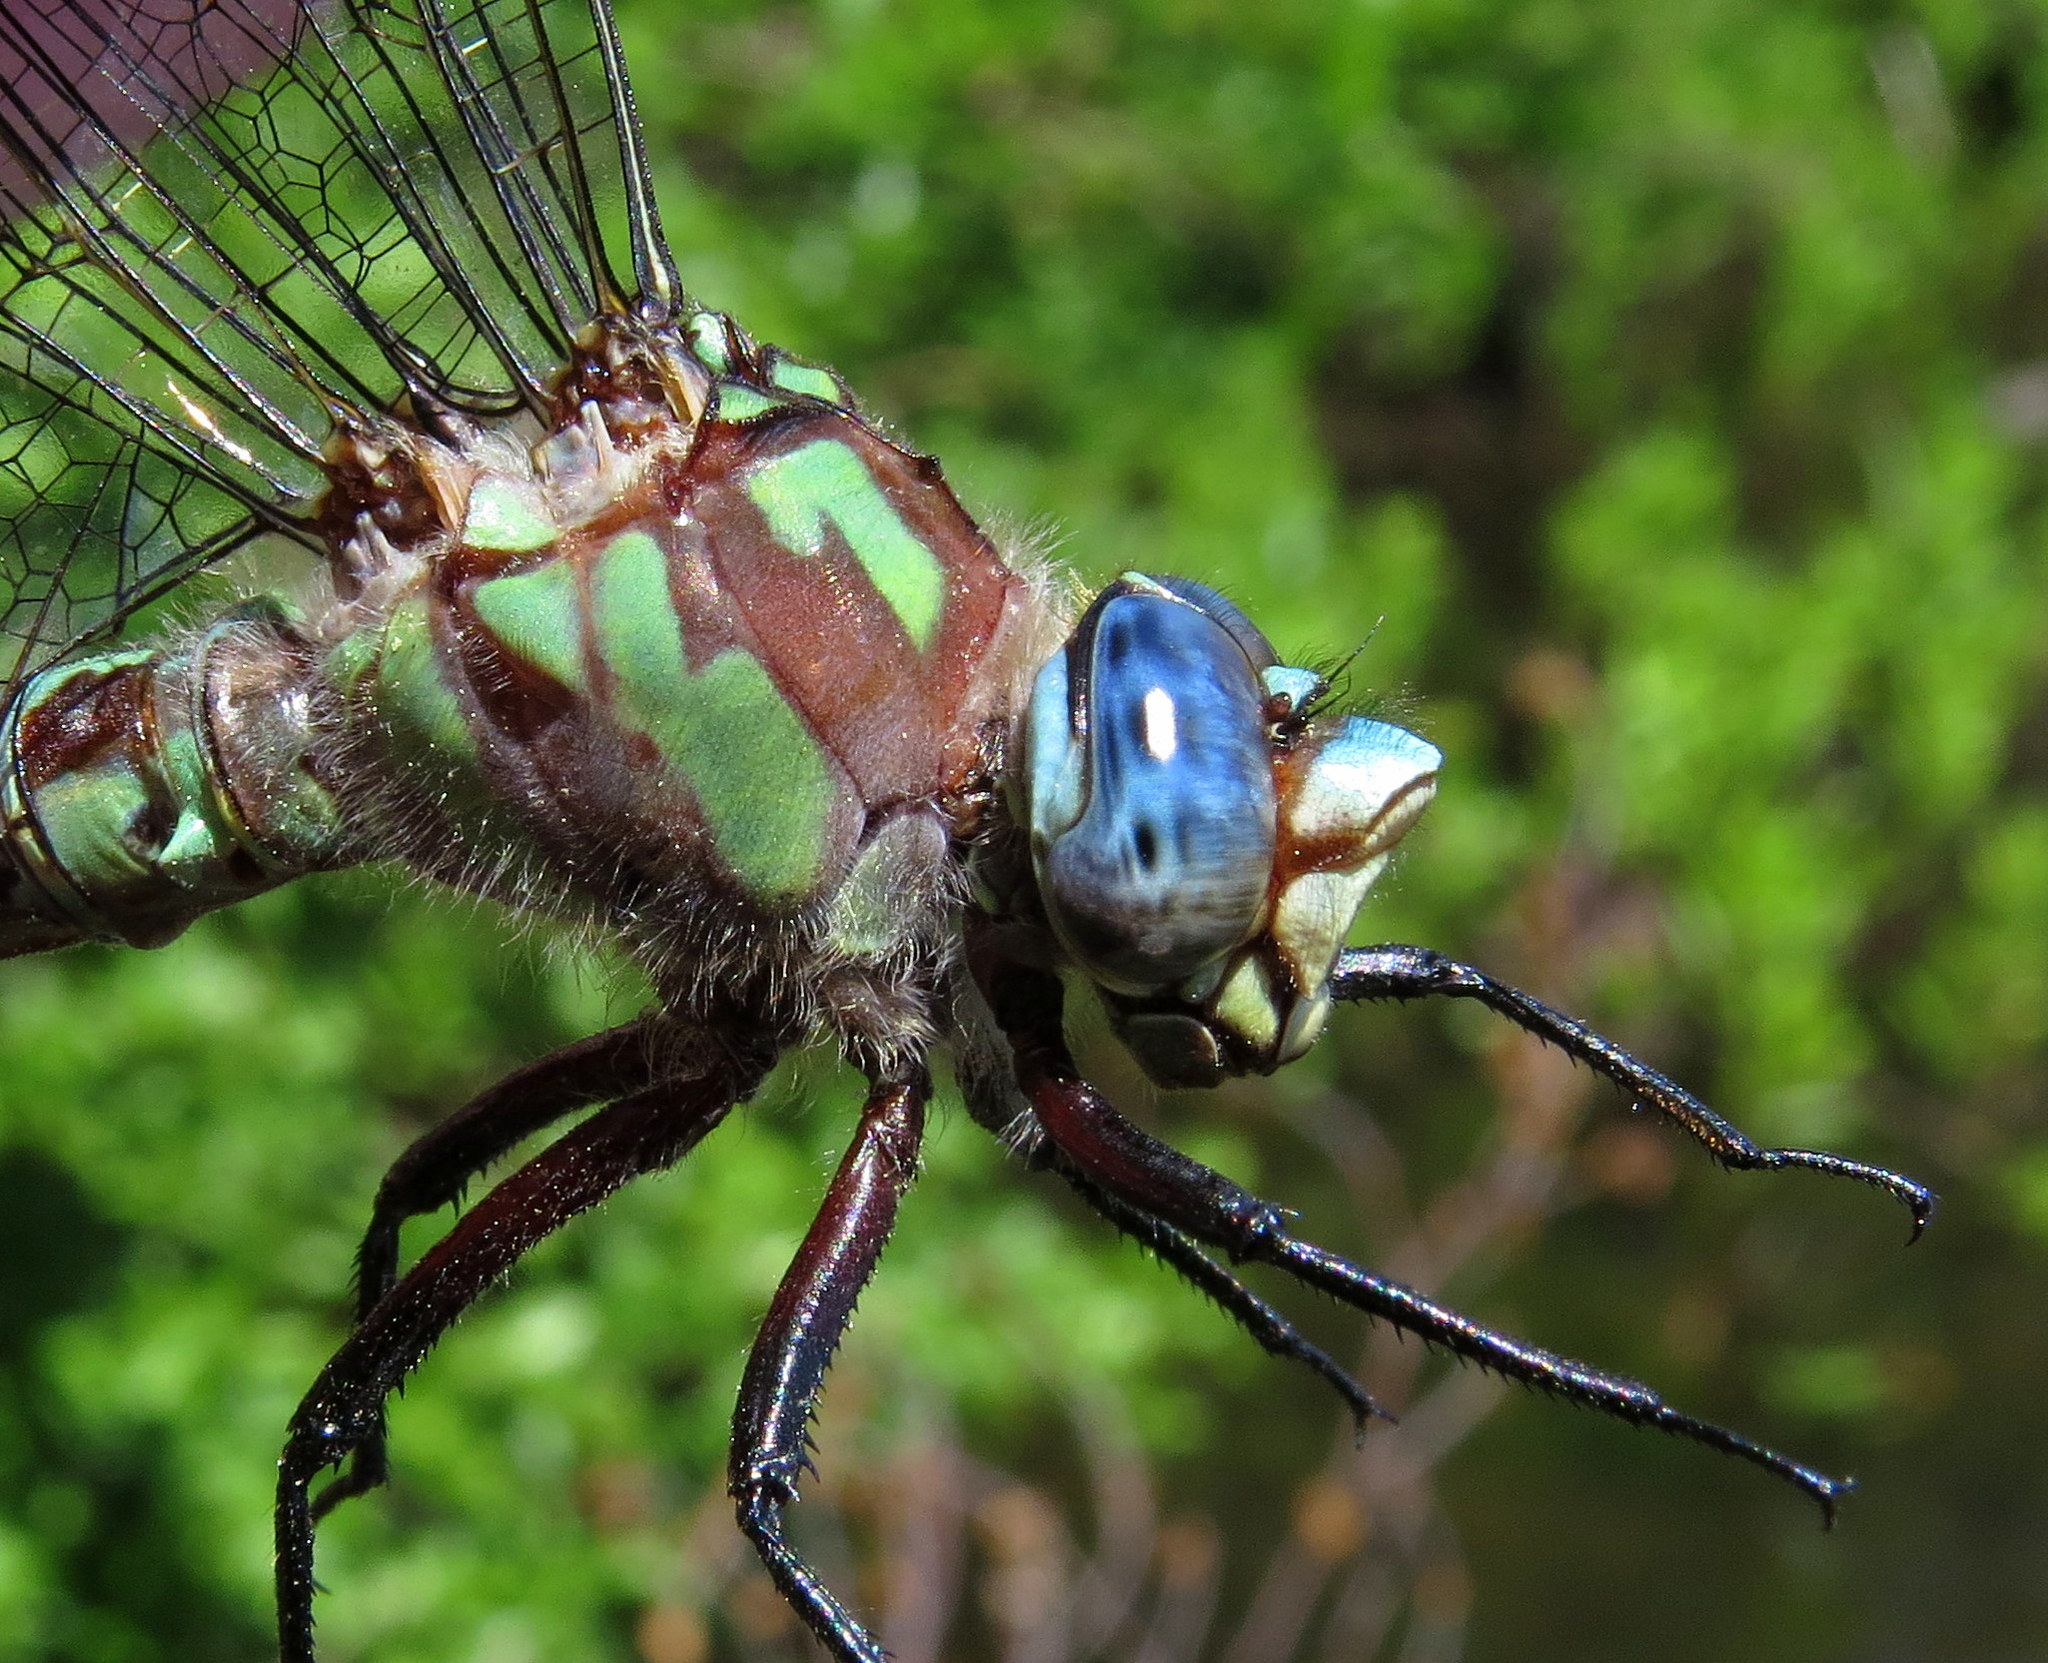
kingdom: Animalia
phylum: Arthropoda
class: Insecta
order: Odonata
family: Aeshnidae
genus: Nasiaeschna
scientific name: Nasiaeschna pentacantha
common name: Cyrano darner
